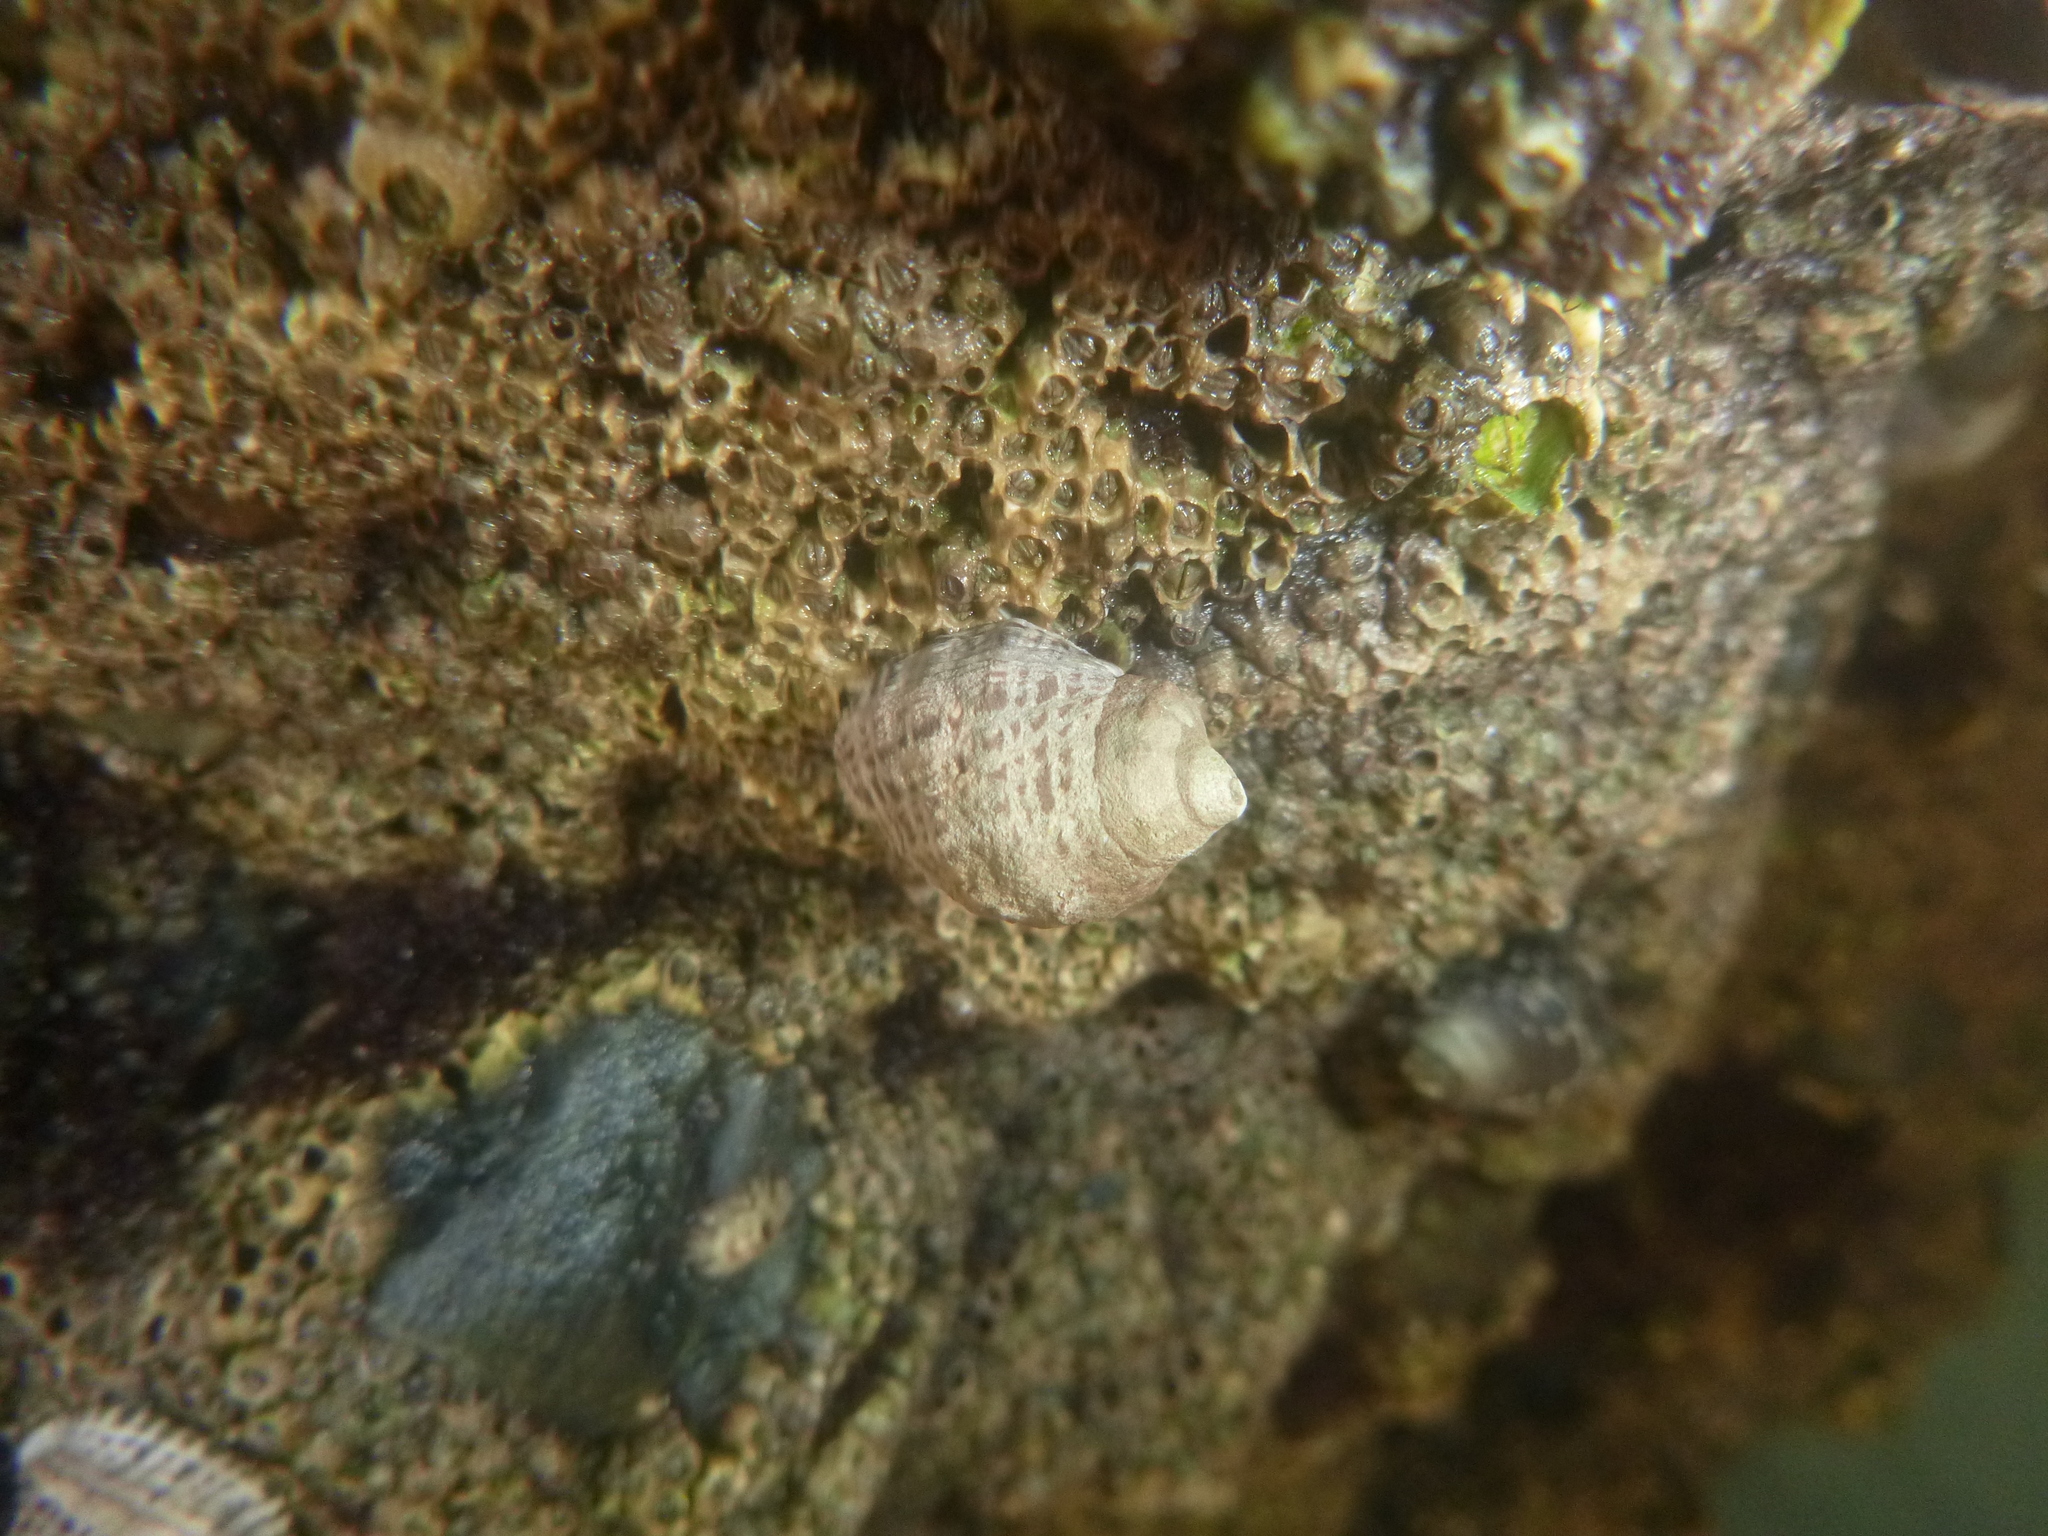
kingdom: Animalia
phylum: Mollusca
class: Gastropoda
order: Neogastropoda
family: Muricidae
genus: Haustrum
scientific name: Haustrum scobina
